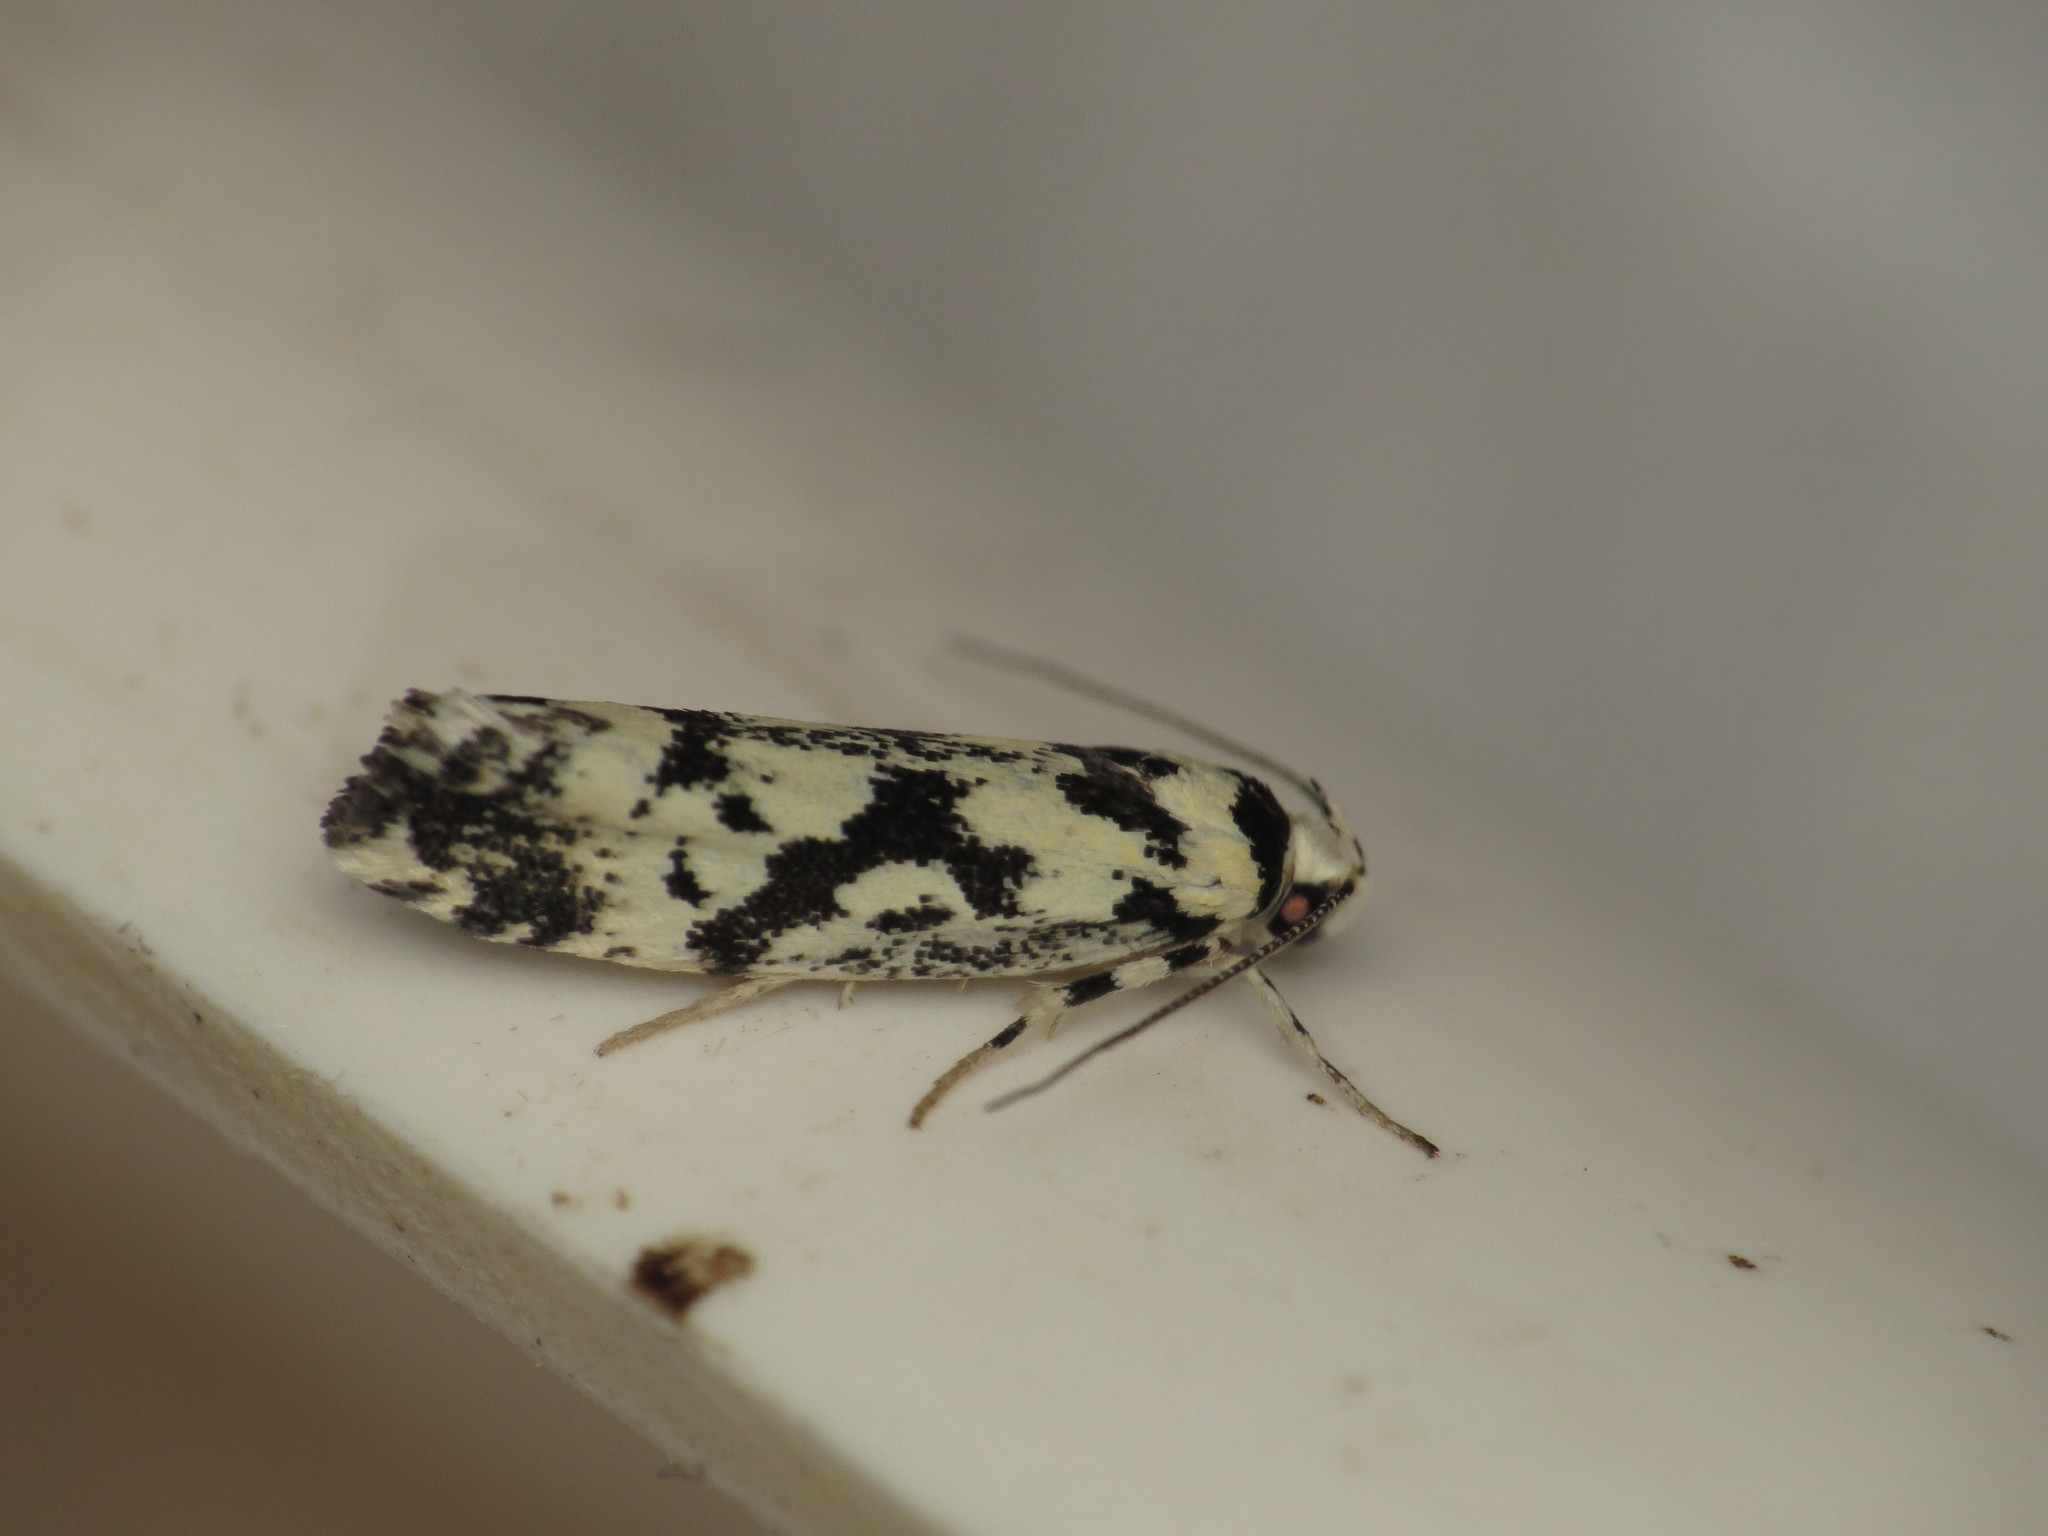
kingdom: Animalia
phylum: Arthropoda
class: Insecta
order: Lepidoptera
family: Xyloryctidae
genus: Lichenaula
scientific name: Lichenaula calligrapha
